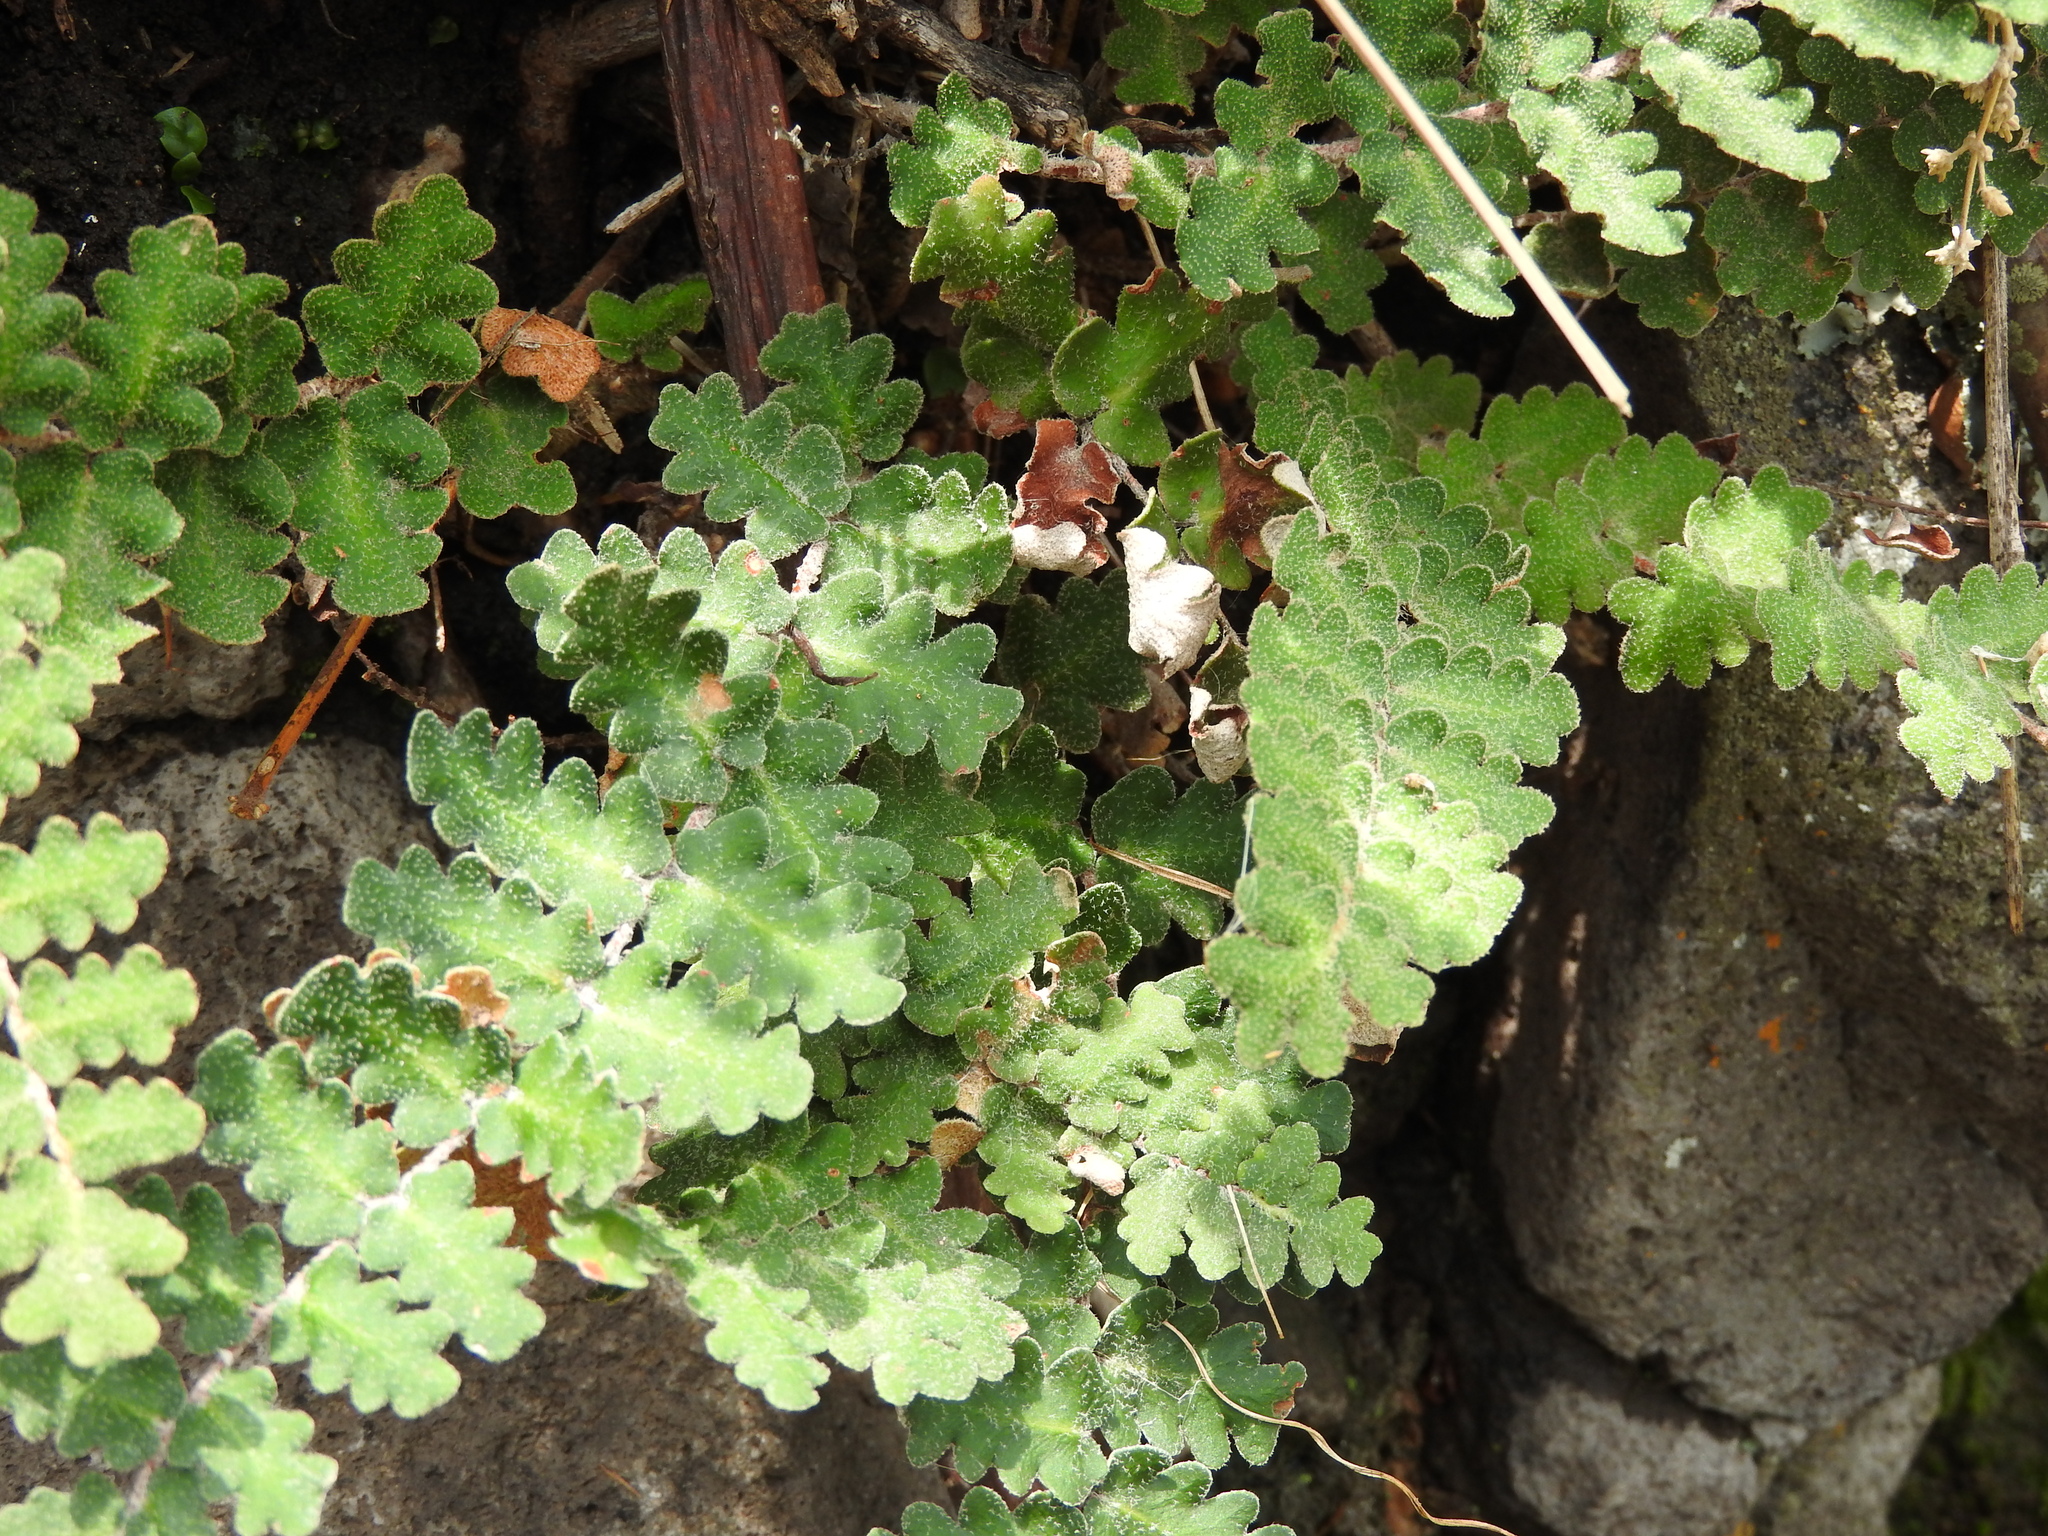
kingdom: Plantae
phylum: Tracheophyta
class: Polypodiopsida
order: Polypodiales
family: Pteridaceae
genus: Astrolepis
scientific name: Astrolepis sinuata
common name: Wavy scaly cloakfern
